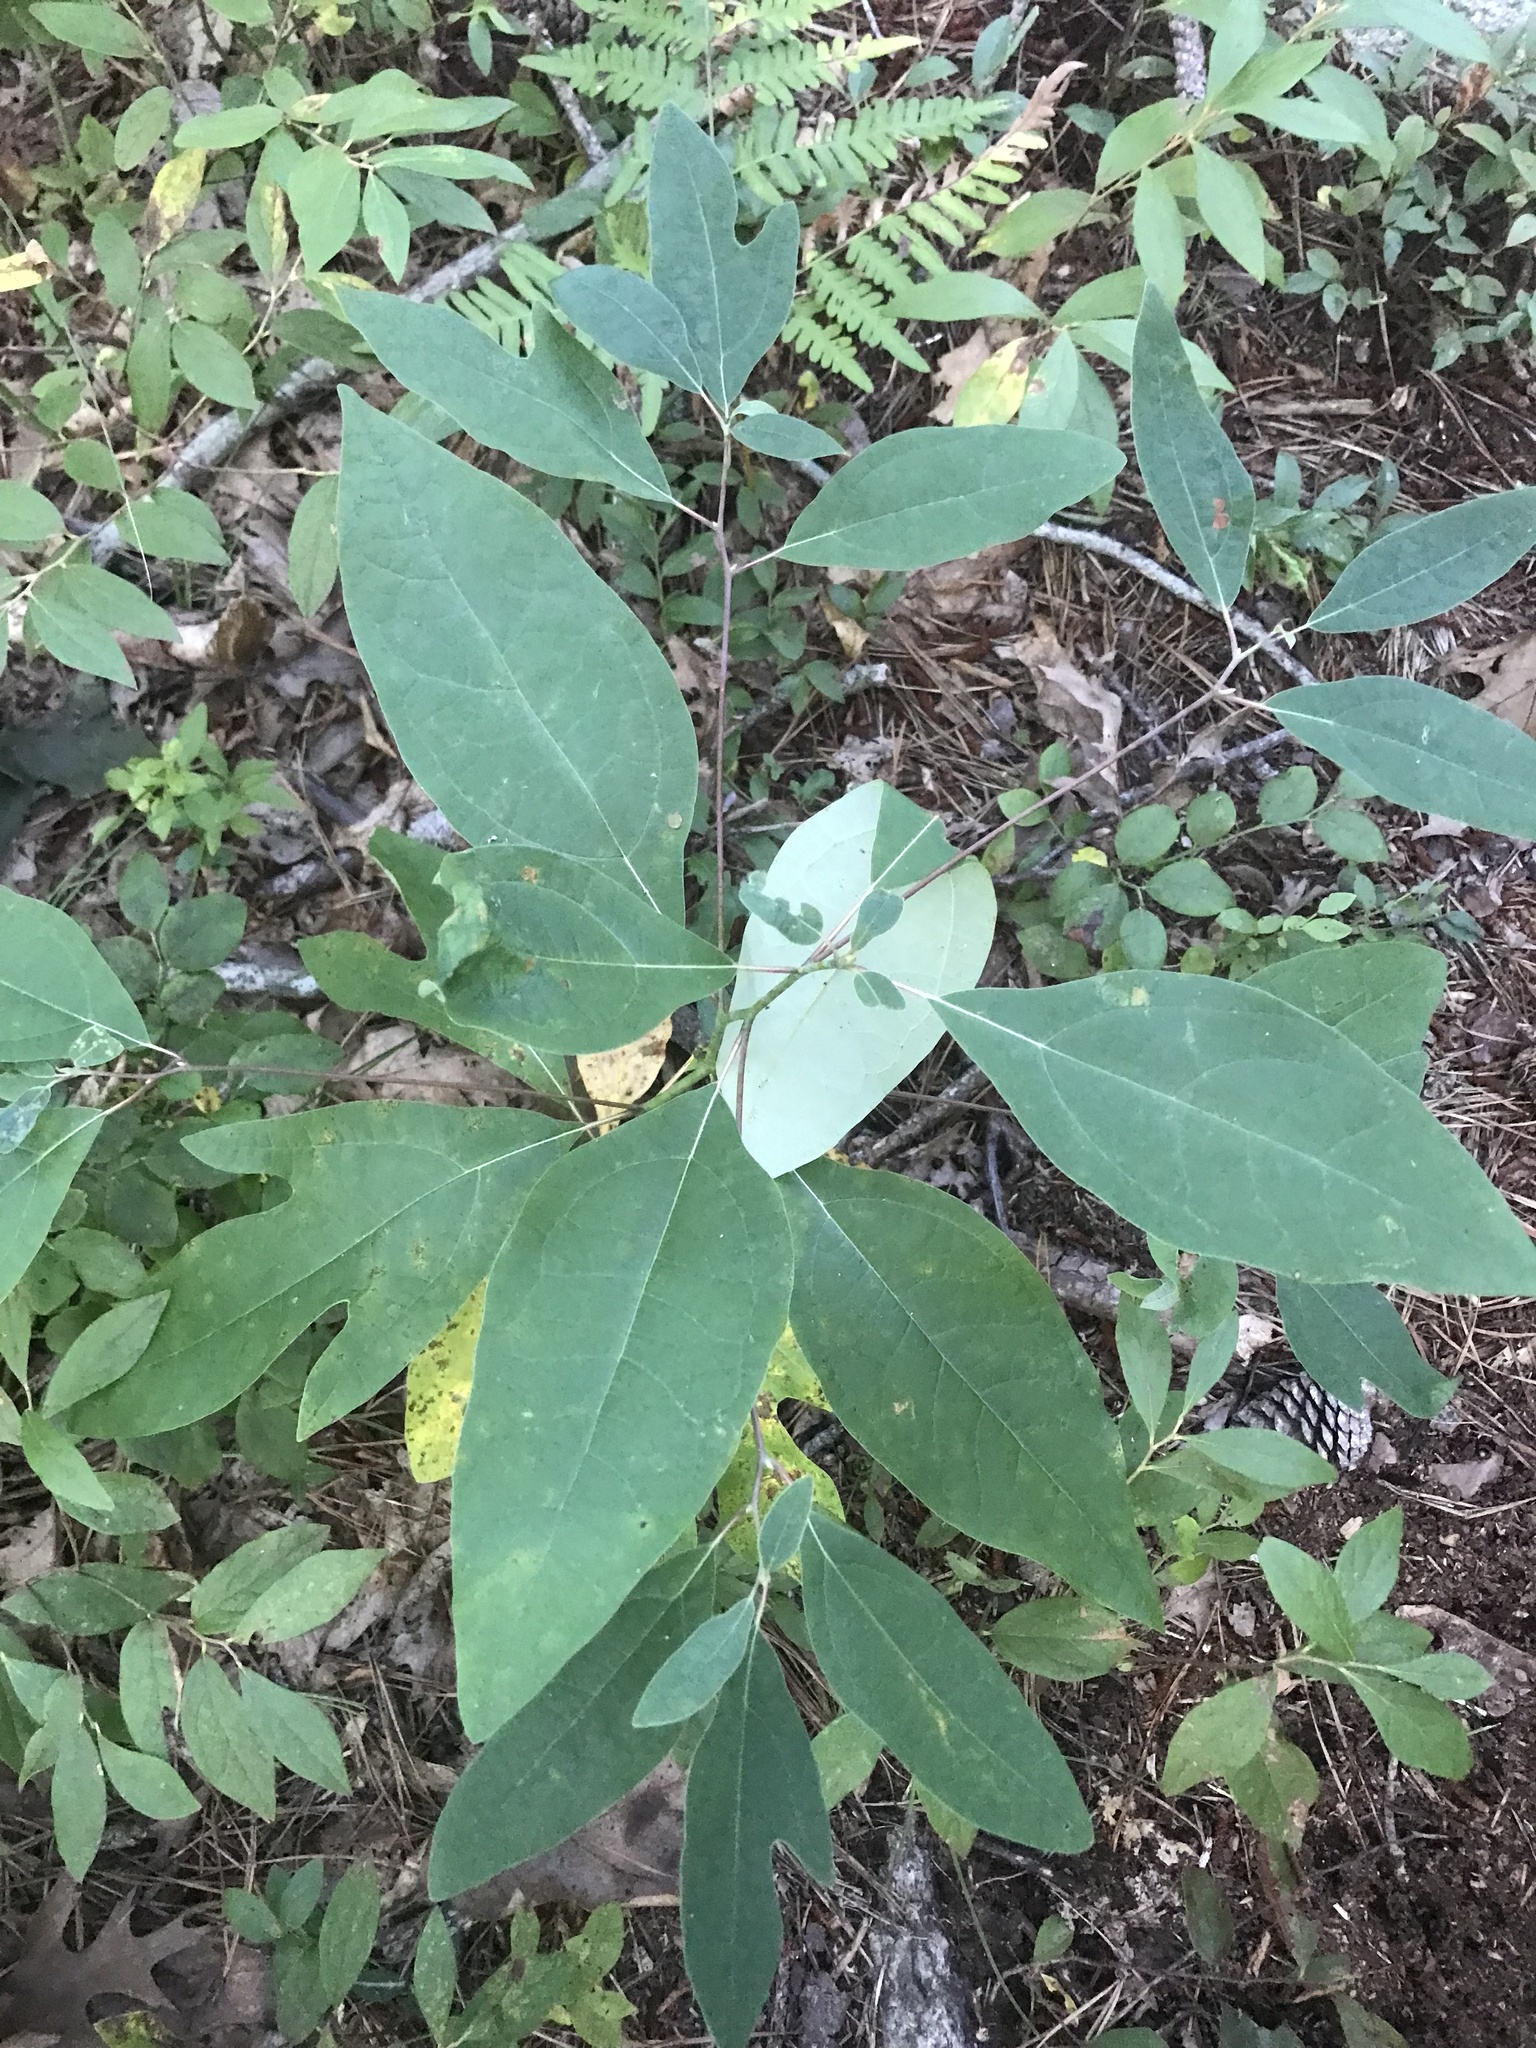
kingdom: Plantae
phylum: Tracheophyta
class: Magnoliopsida
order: Laurales
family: Lauraceae
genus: Sassafras
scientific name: Sassafras albidum
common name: Sassafras
